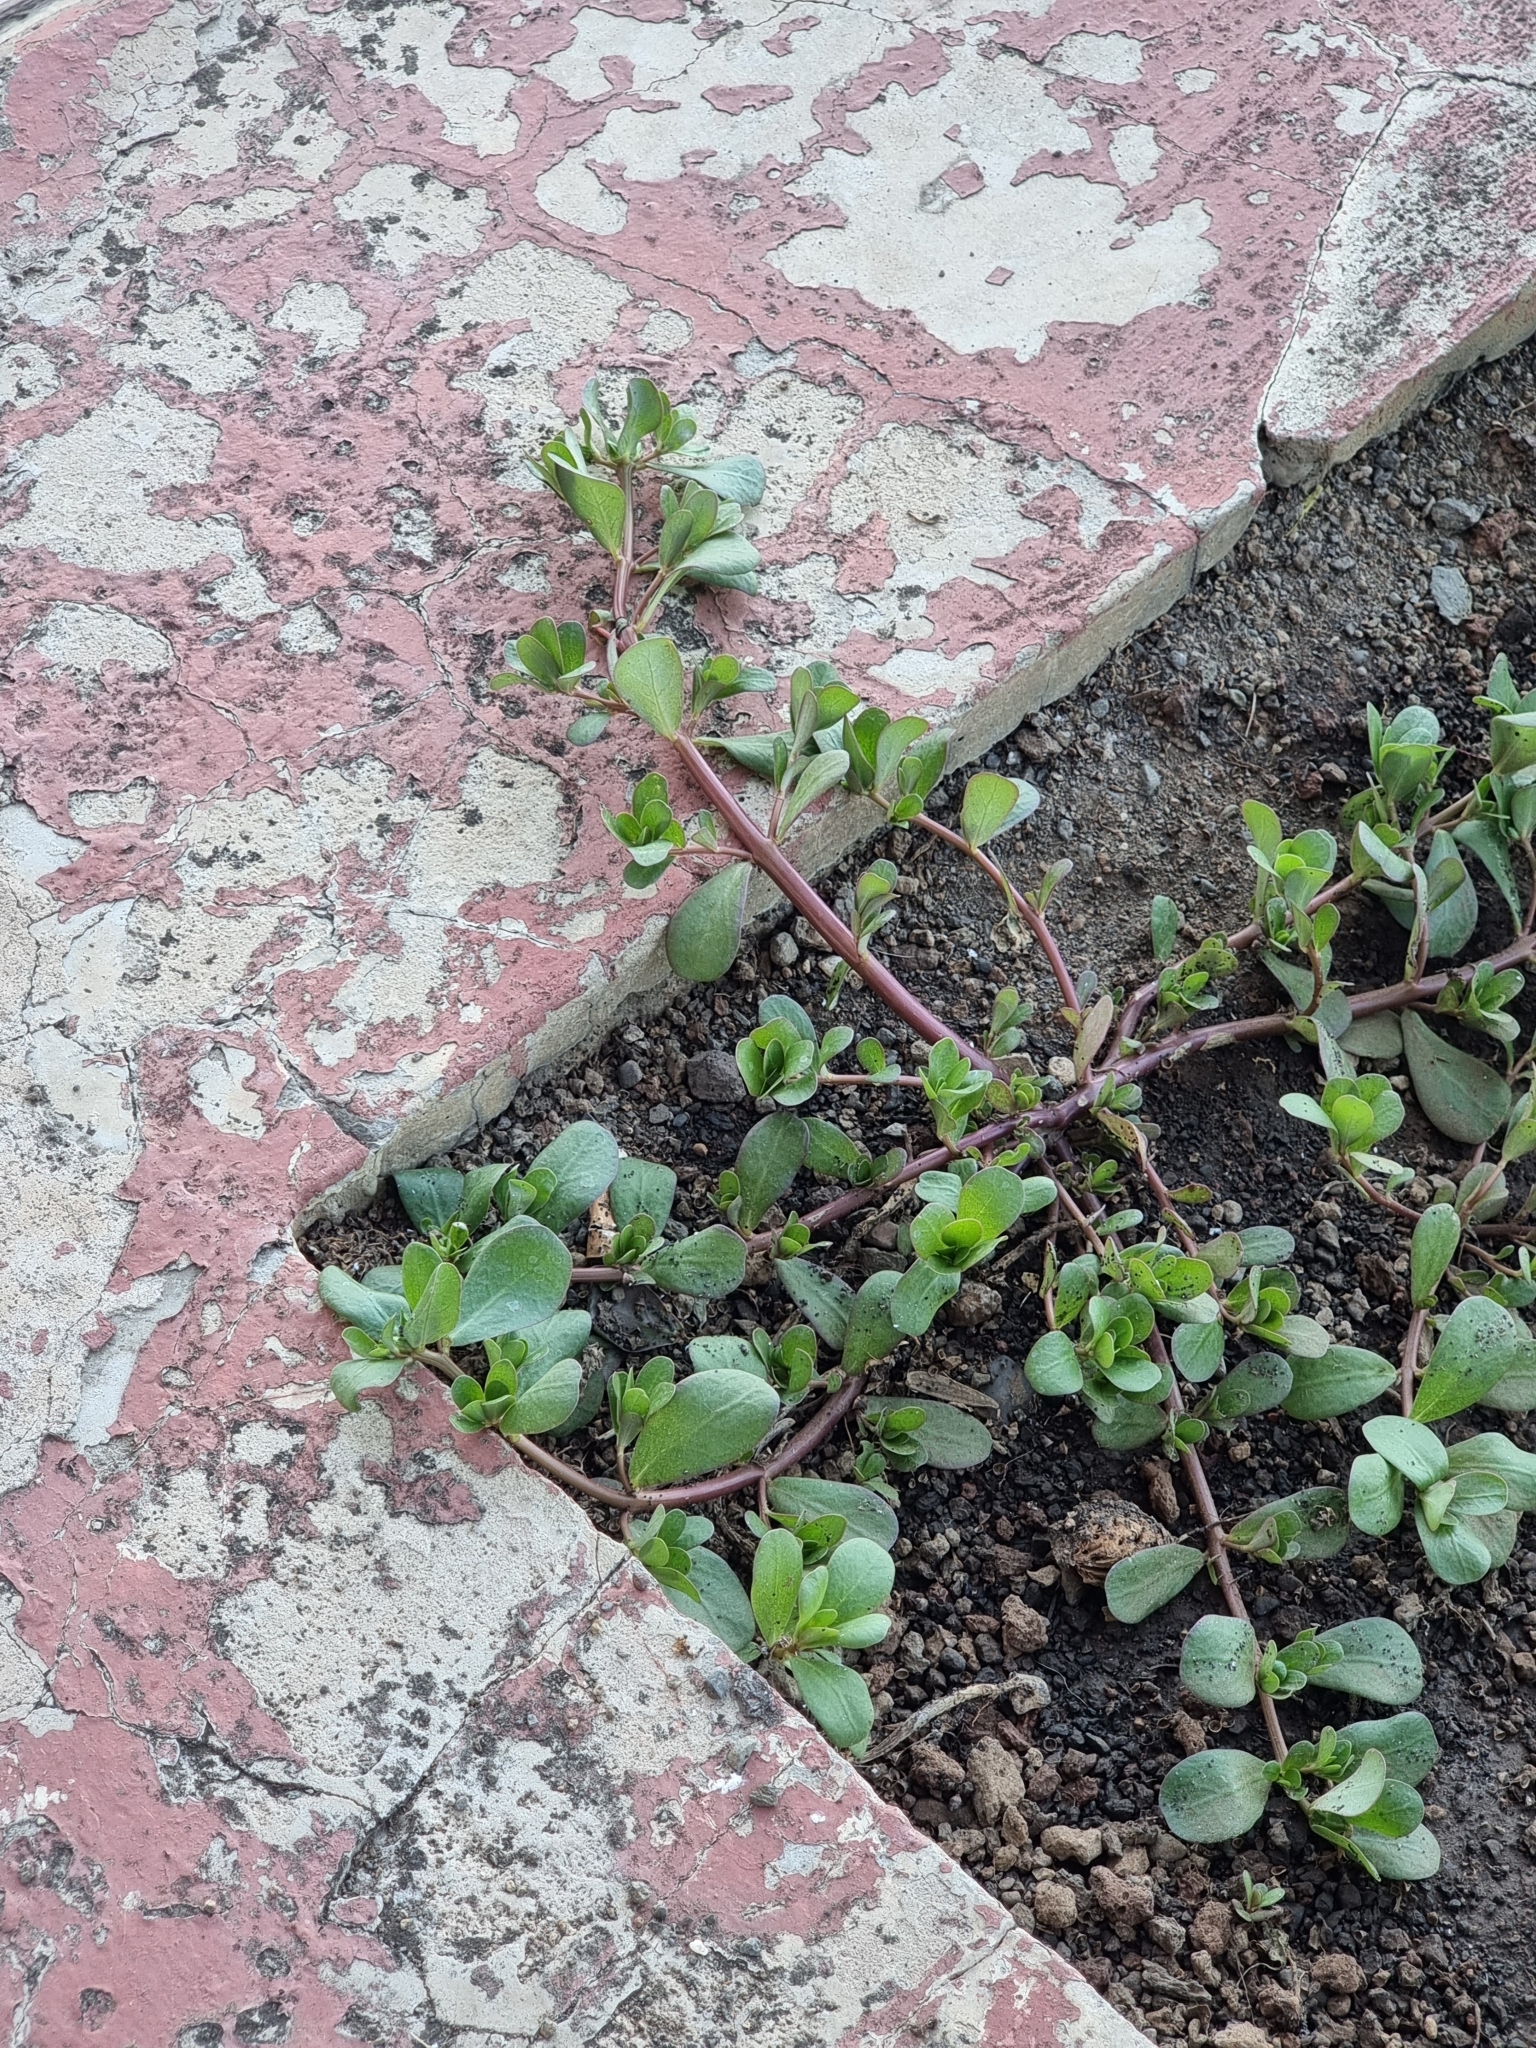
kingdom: Plantae
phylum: Tracheophyta
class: Magnoliopsida
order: Caryophyllales
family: Portulacaceae
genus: Portulaca
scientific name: Portulaca oleracea
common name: Common purslane
